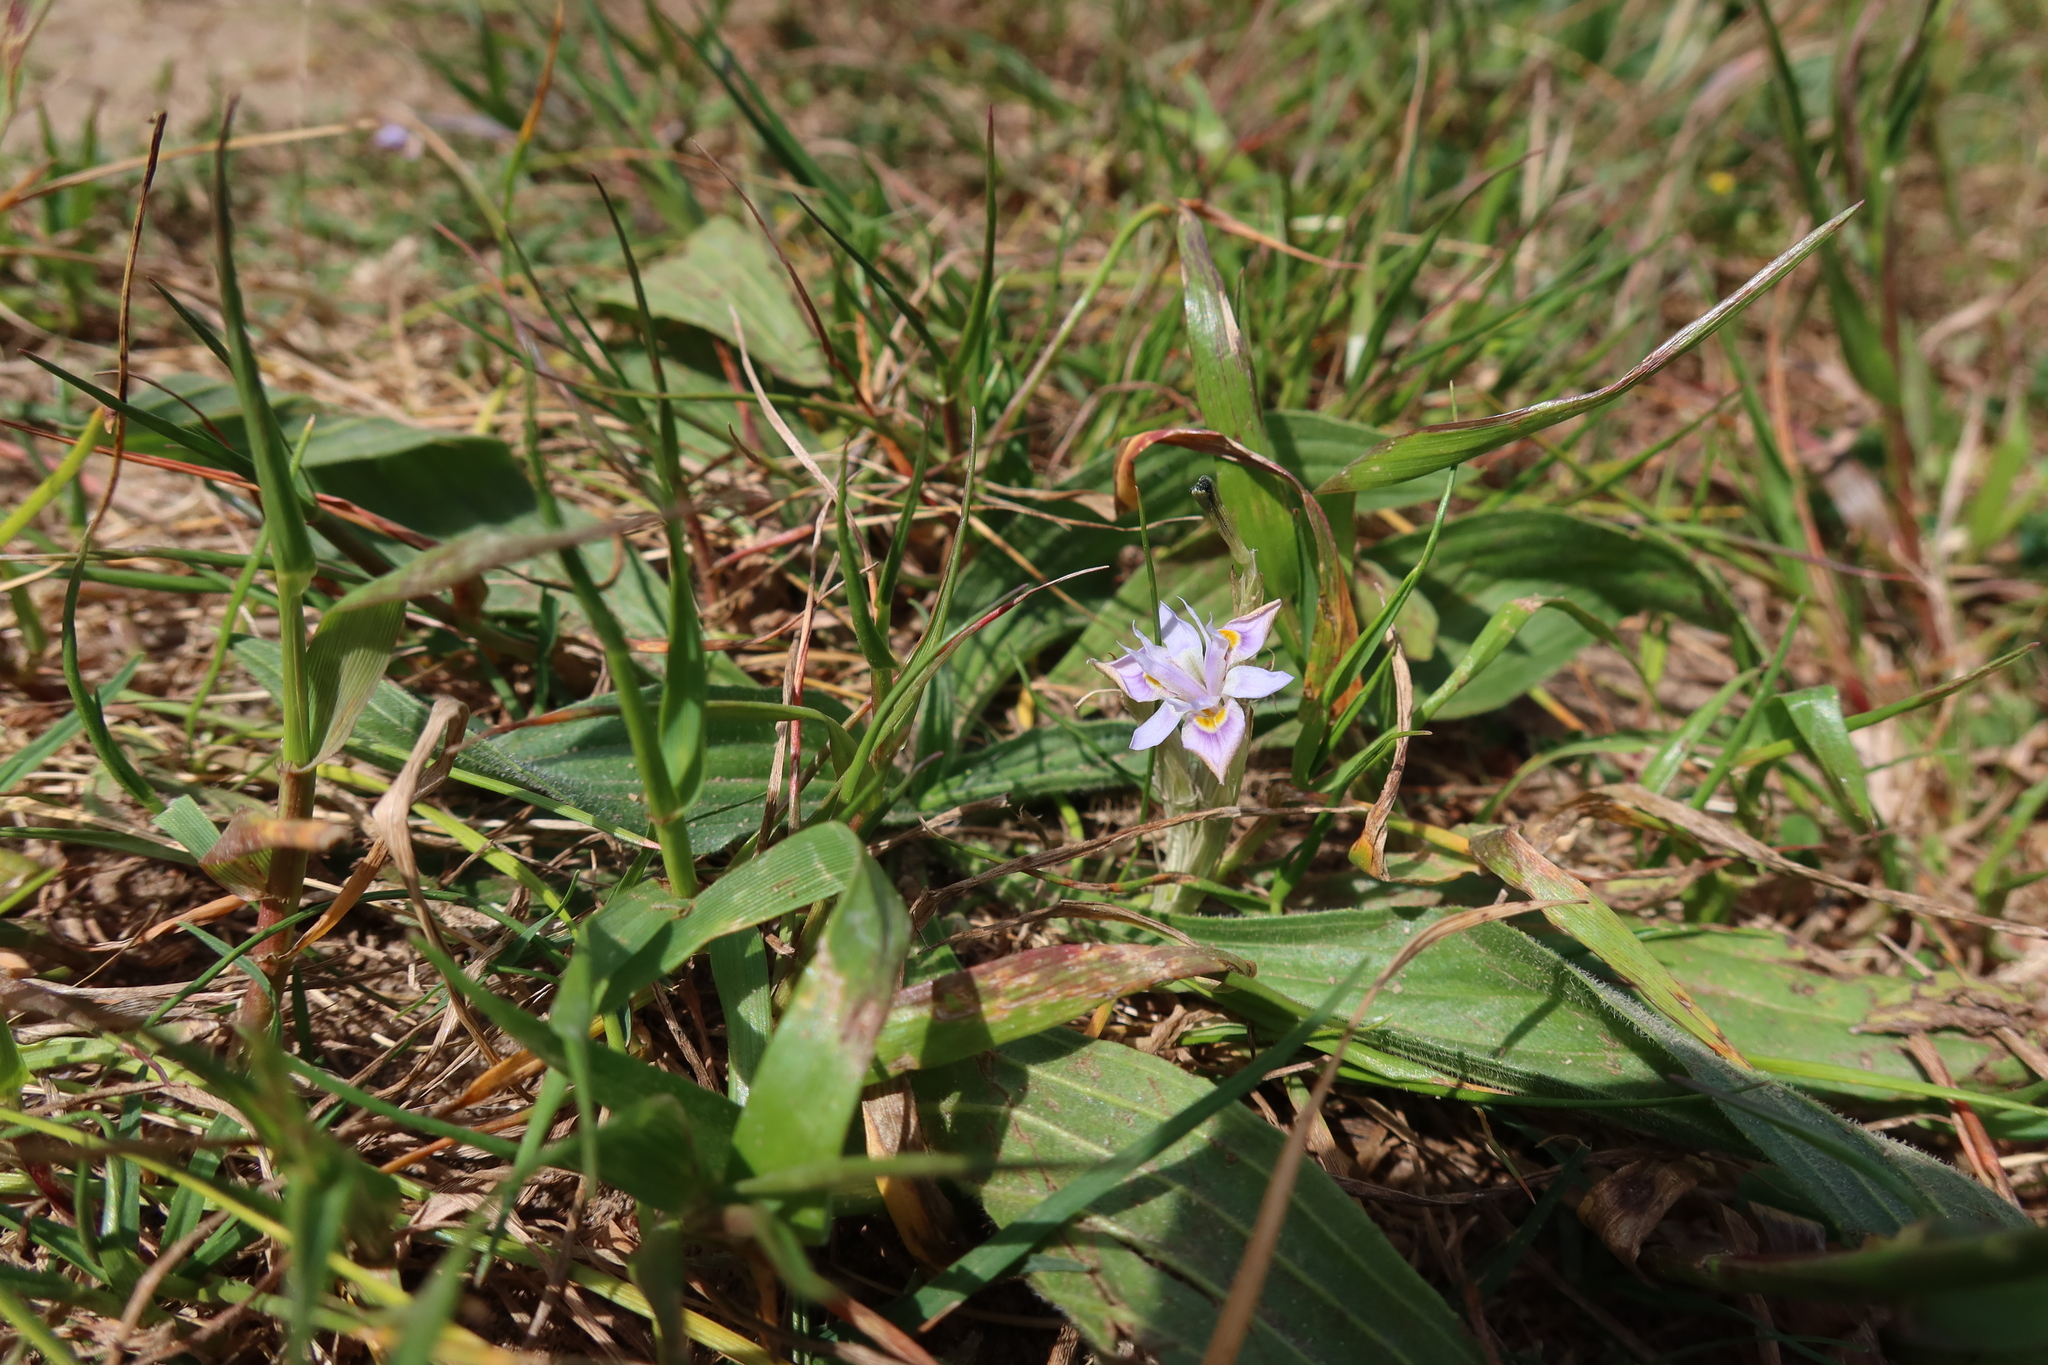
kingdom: Plantae
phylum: Tracheophyta
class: Liliopsida
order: Asparagales
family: Iridaceae
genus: Moraea
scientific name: Moraea setifolia
